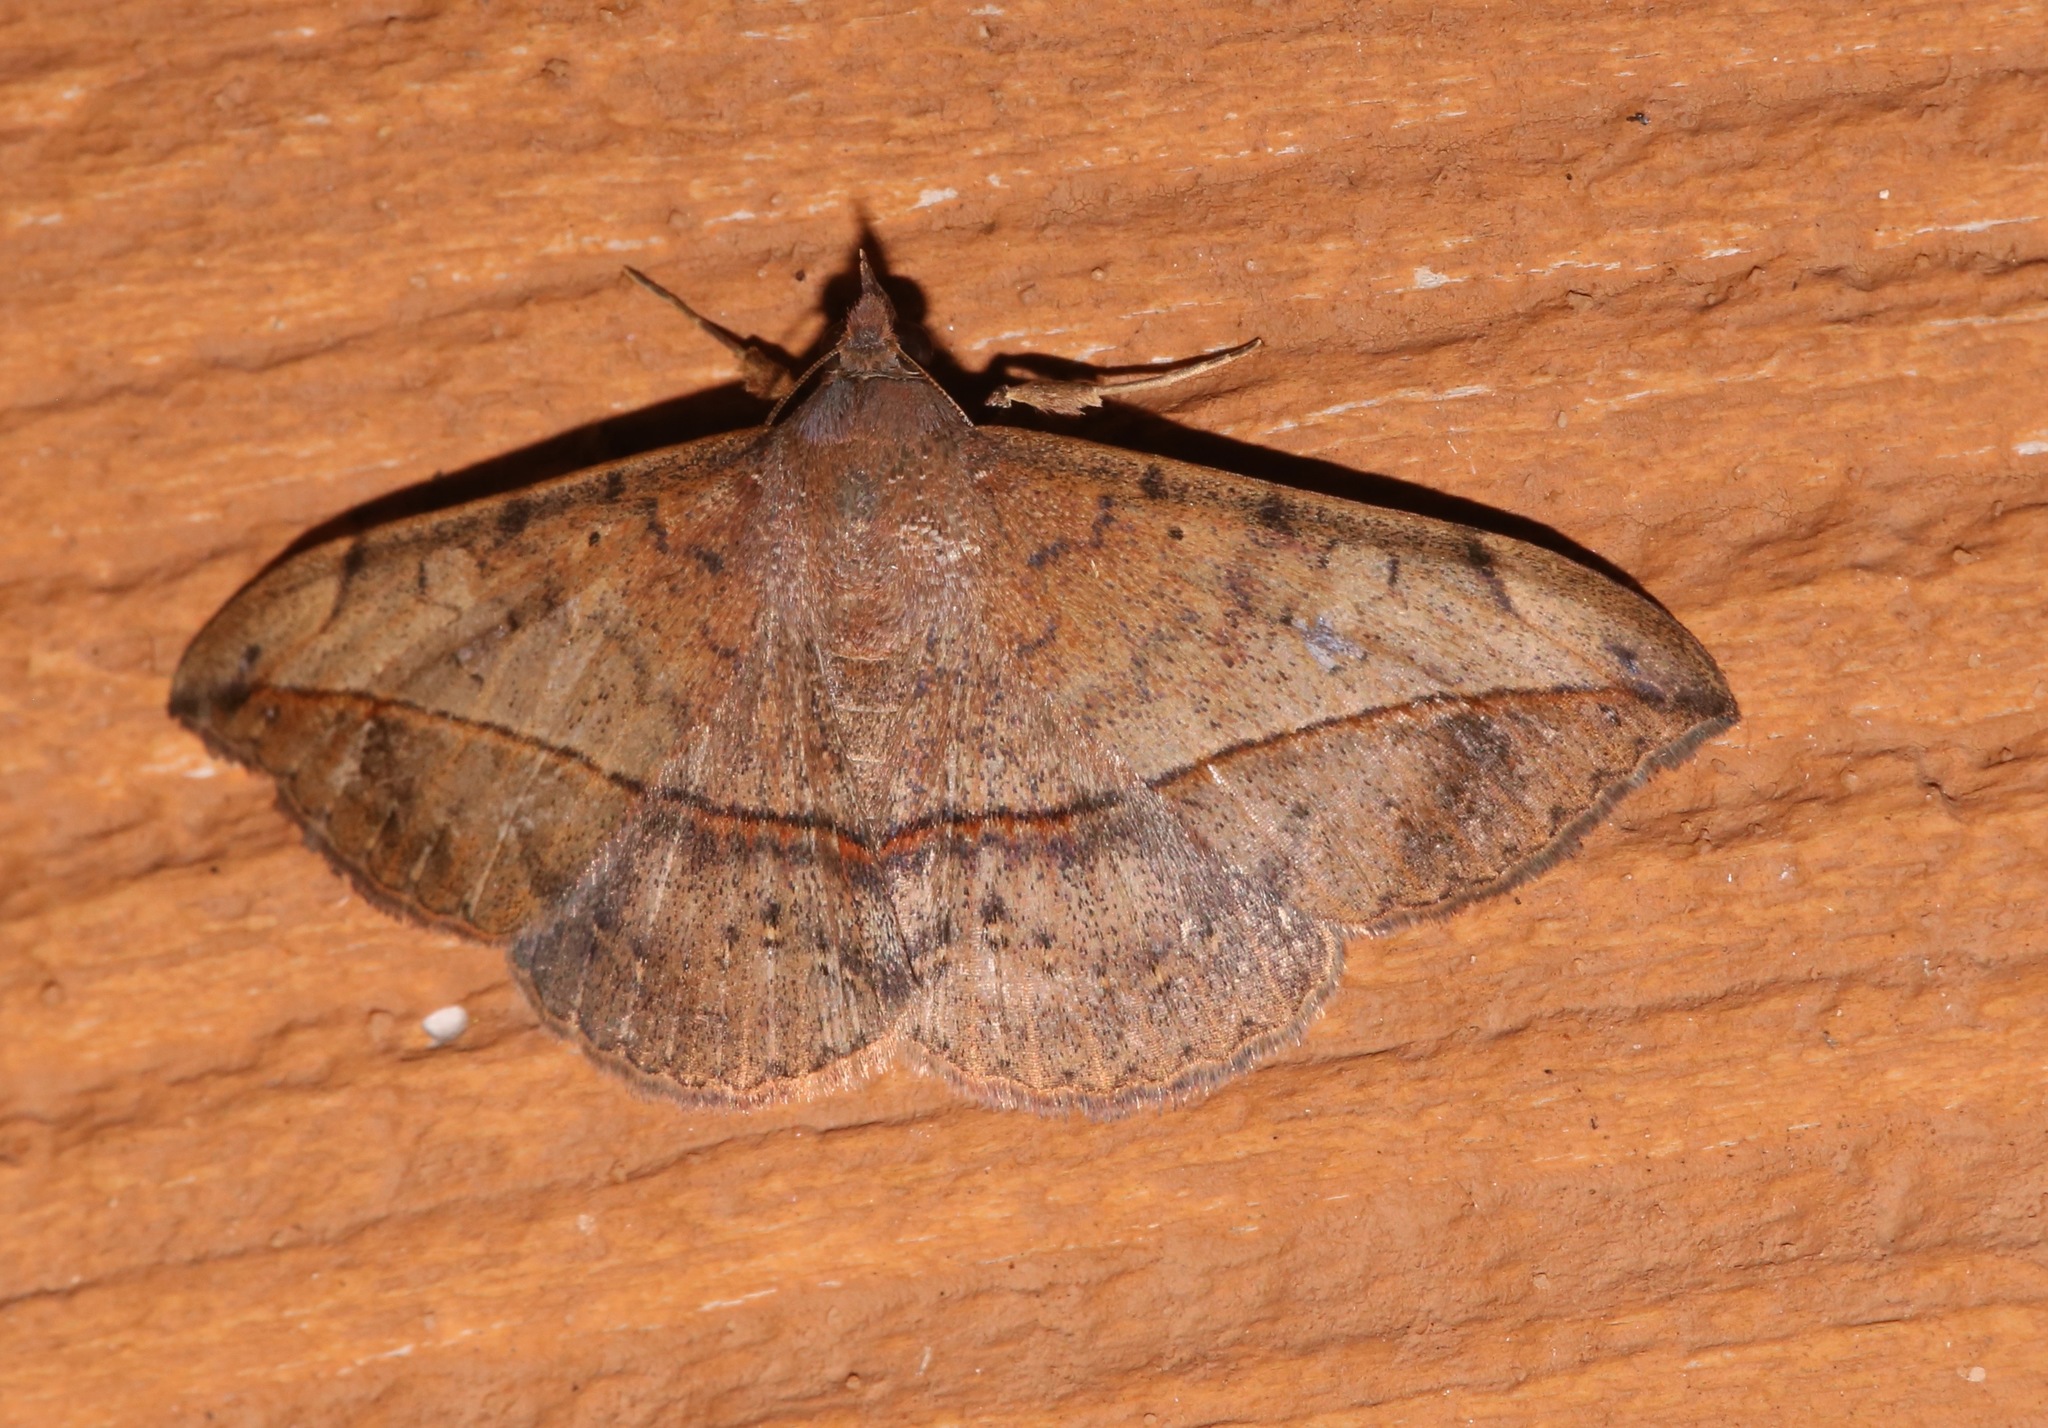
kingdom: Animalia
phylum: Arthropoda
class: Insecta
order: Lepidoptera
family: Erebidae
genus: Anticarsia
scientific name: Anticarsia gemmatalis
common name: Cutworm moth
